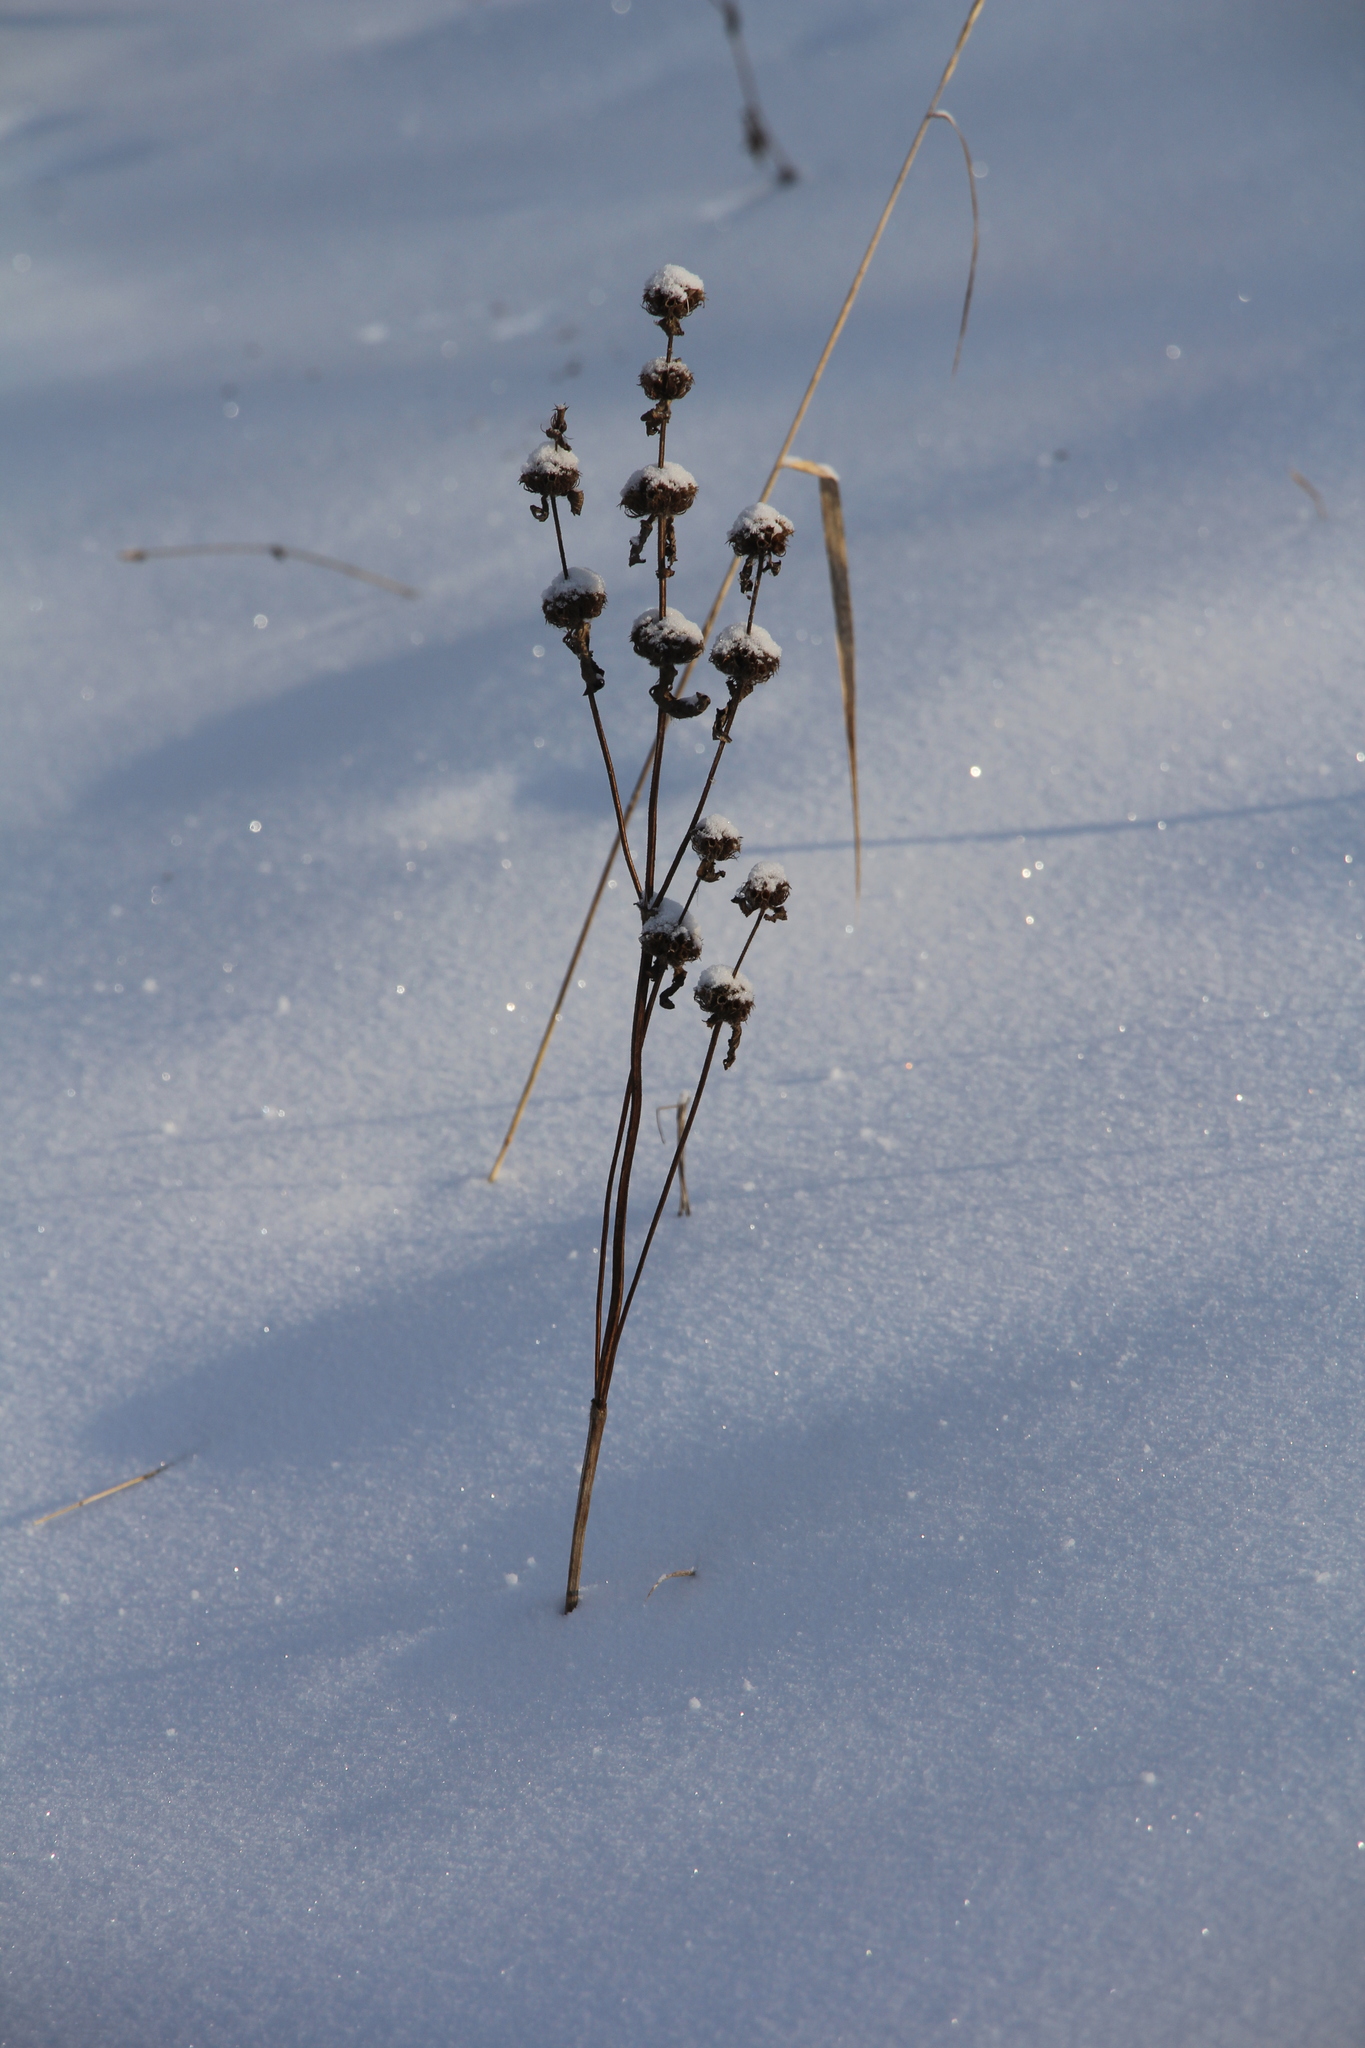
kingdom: Plantae
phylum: Tracheophyta
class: Magnoliopsida
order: Lamiales
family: Lamiaceae
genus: Phlomoides
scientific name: Phlomoides tuberosa
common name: Tuberous jerusalem sage
